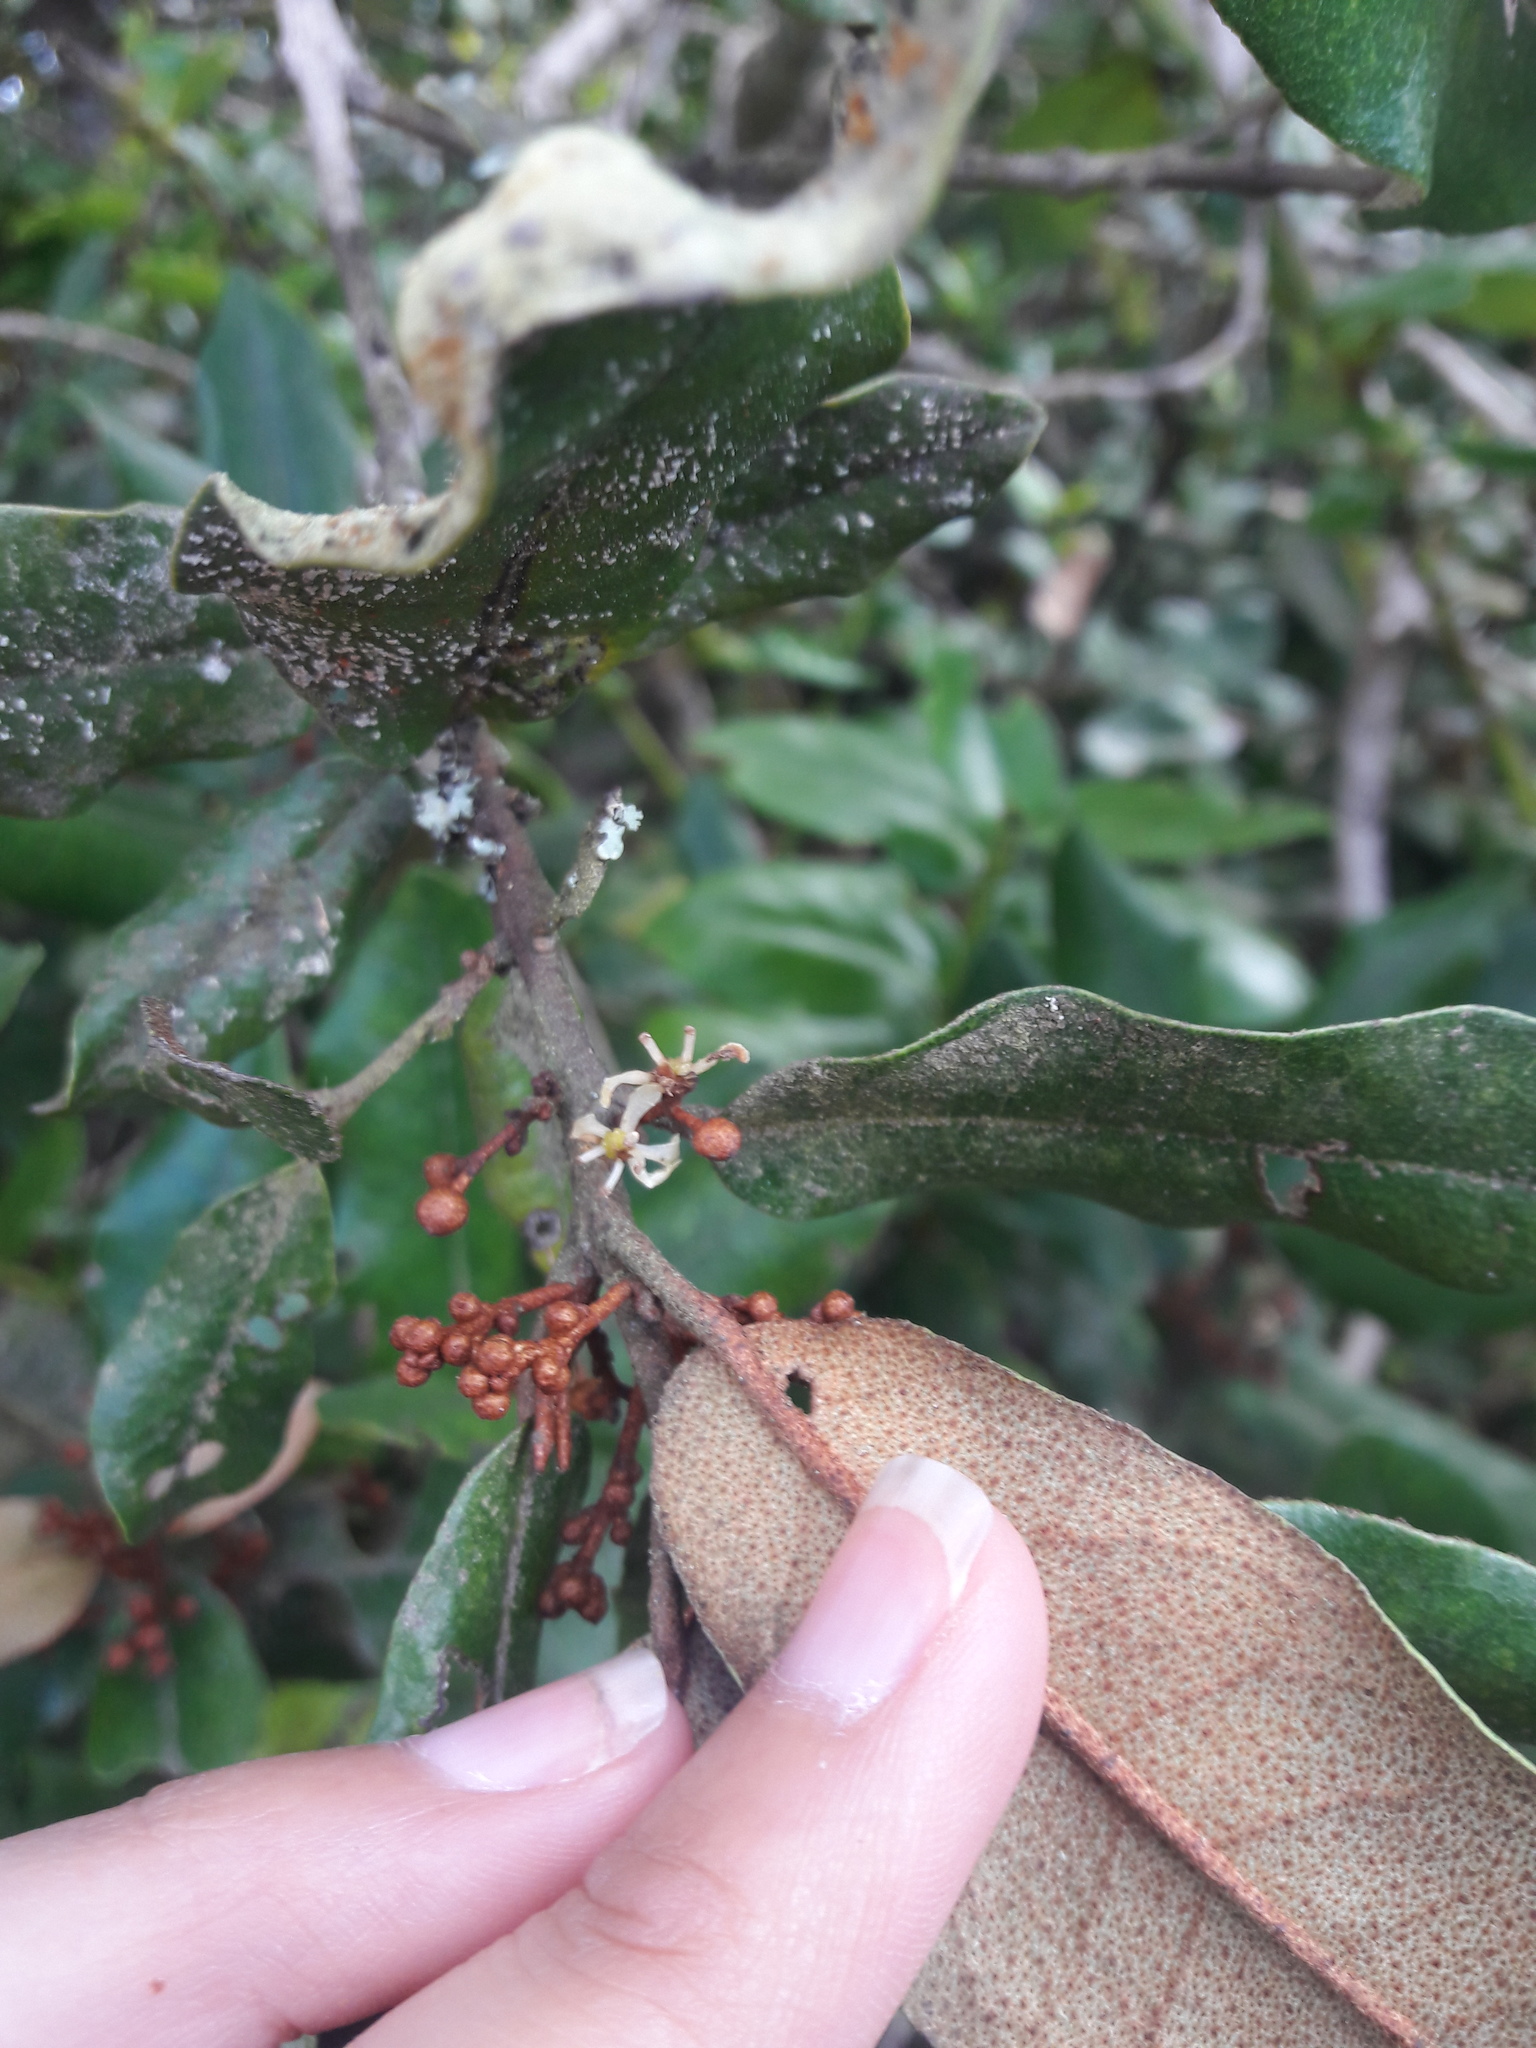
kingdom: Plantae
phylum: Tracheophyta
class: Magnoliopsida
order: Berberidopsidales
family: Aextoxicaceae
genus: Aextoxicon
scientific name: Aextoxicon punctatum
